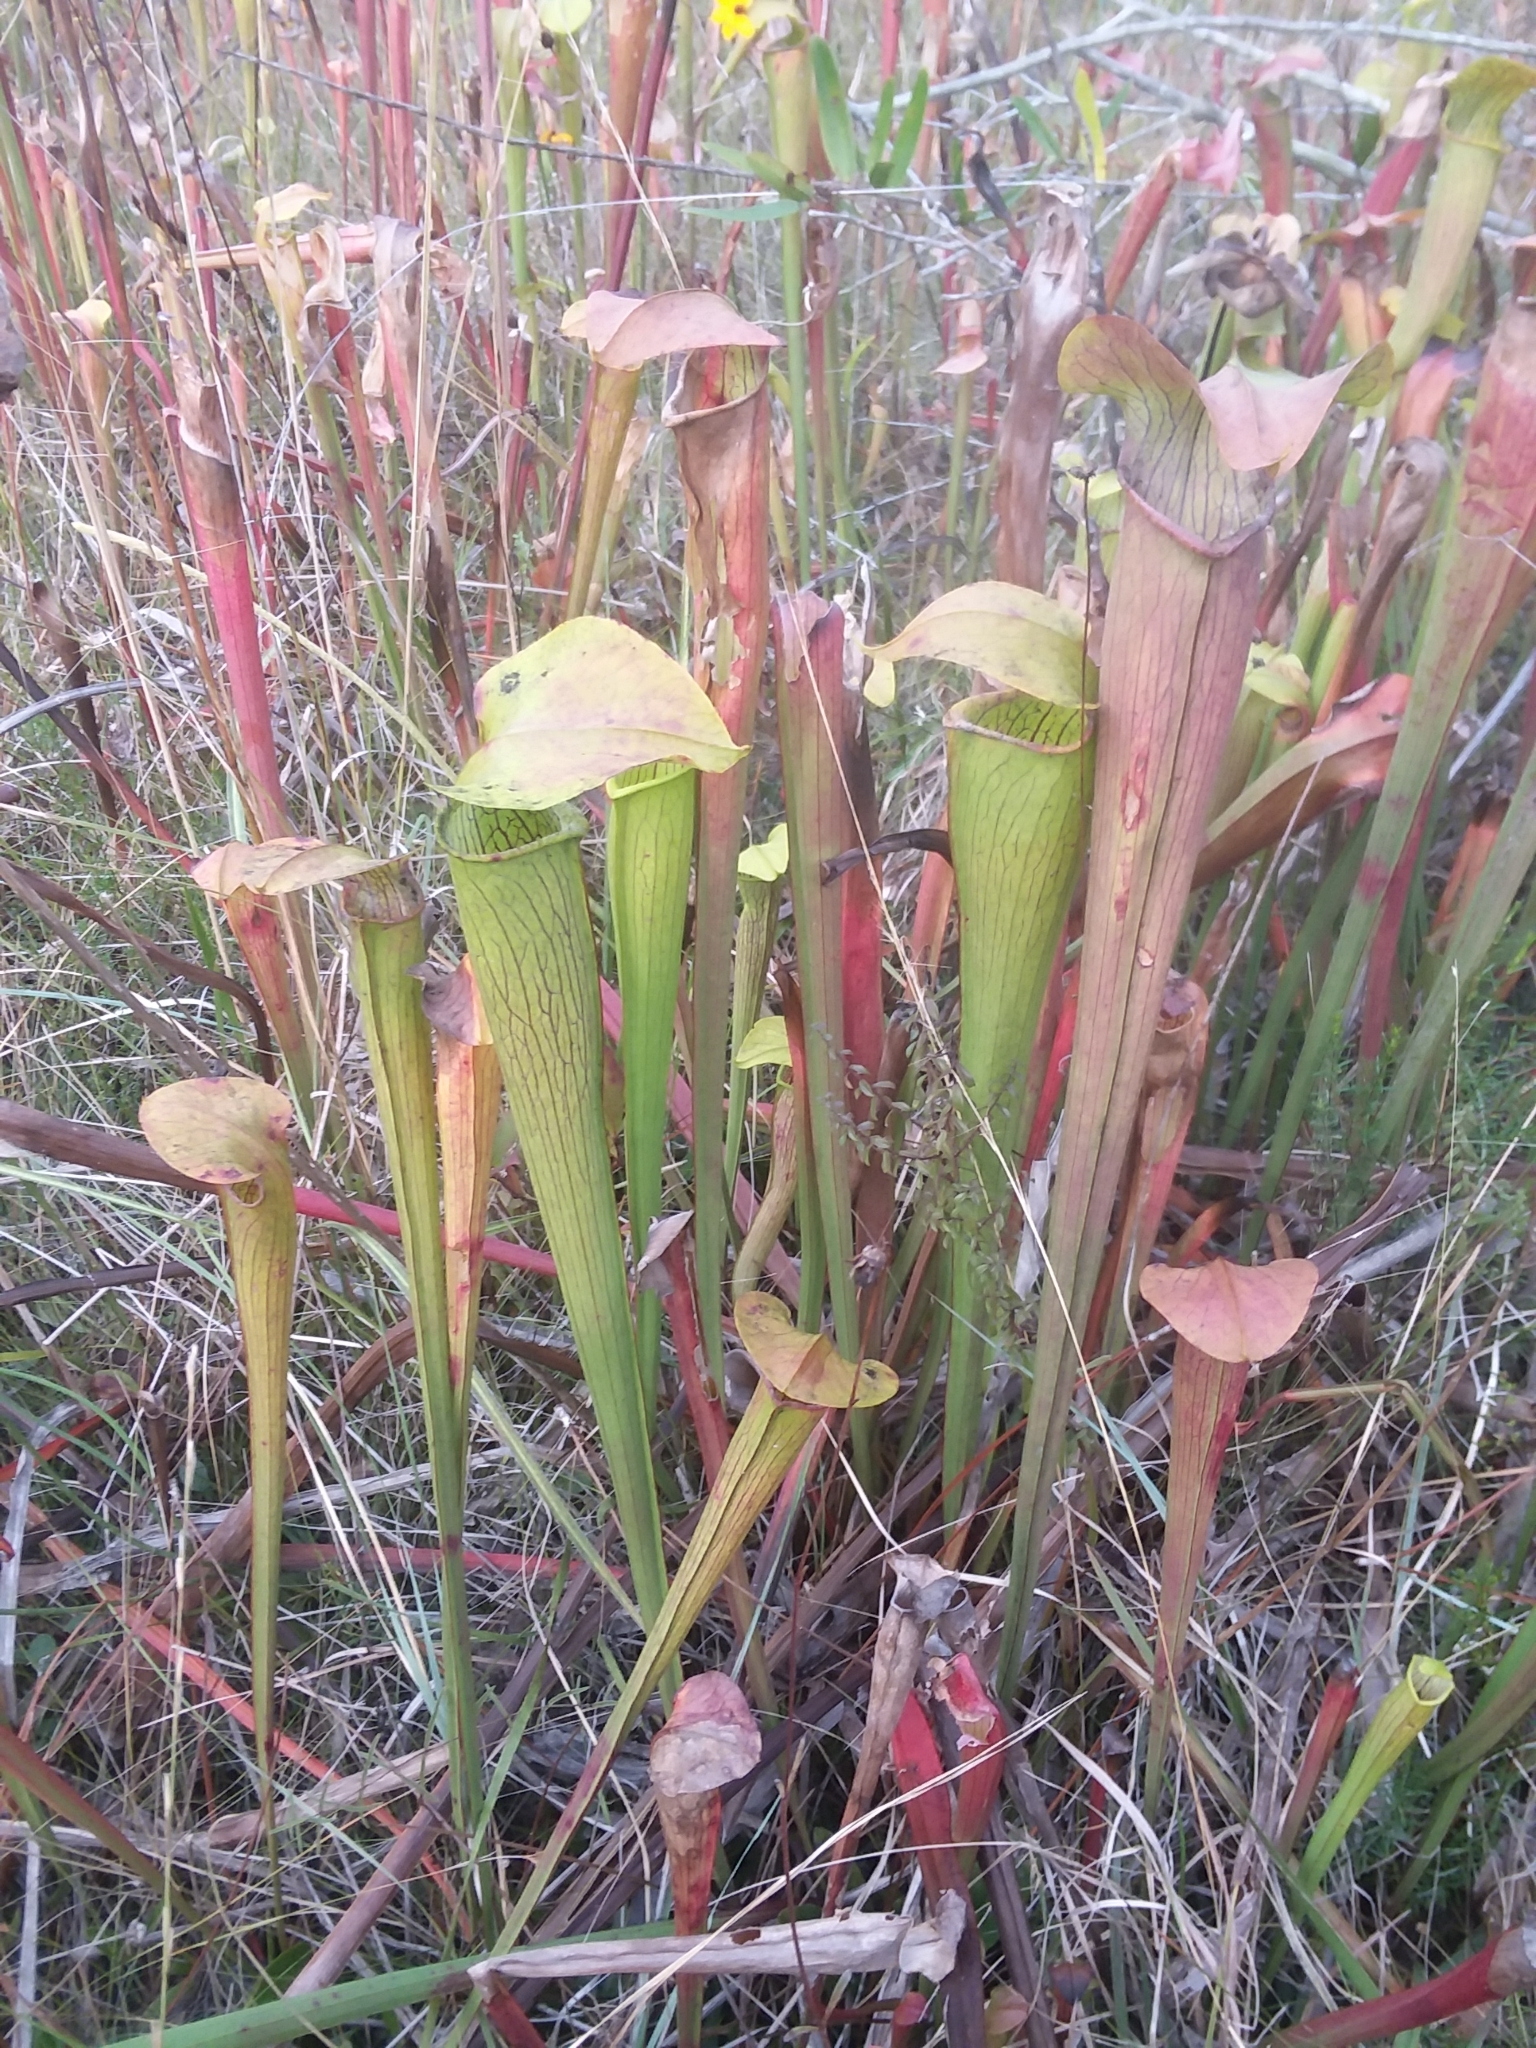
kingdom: Plantae
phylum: Tracheophyta
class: Magnoliopsida
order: Ericales
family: Sarraceniaceae
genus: Sarracenia
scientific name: Sarracenia alata
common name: Yellow trumpets
